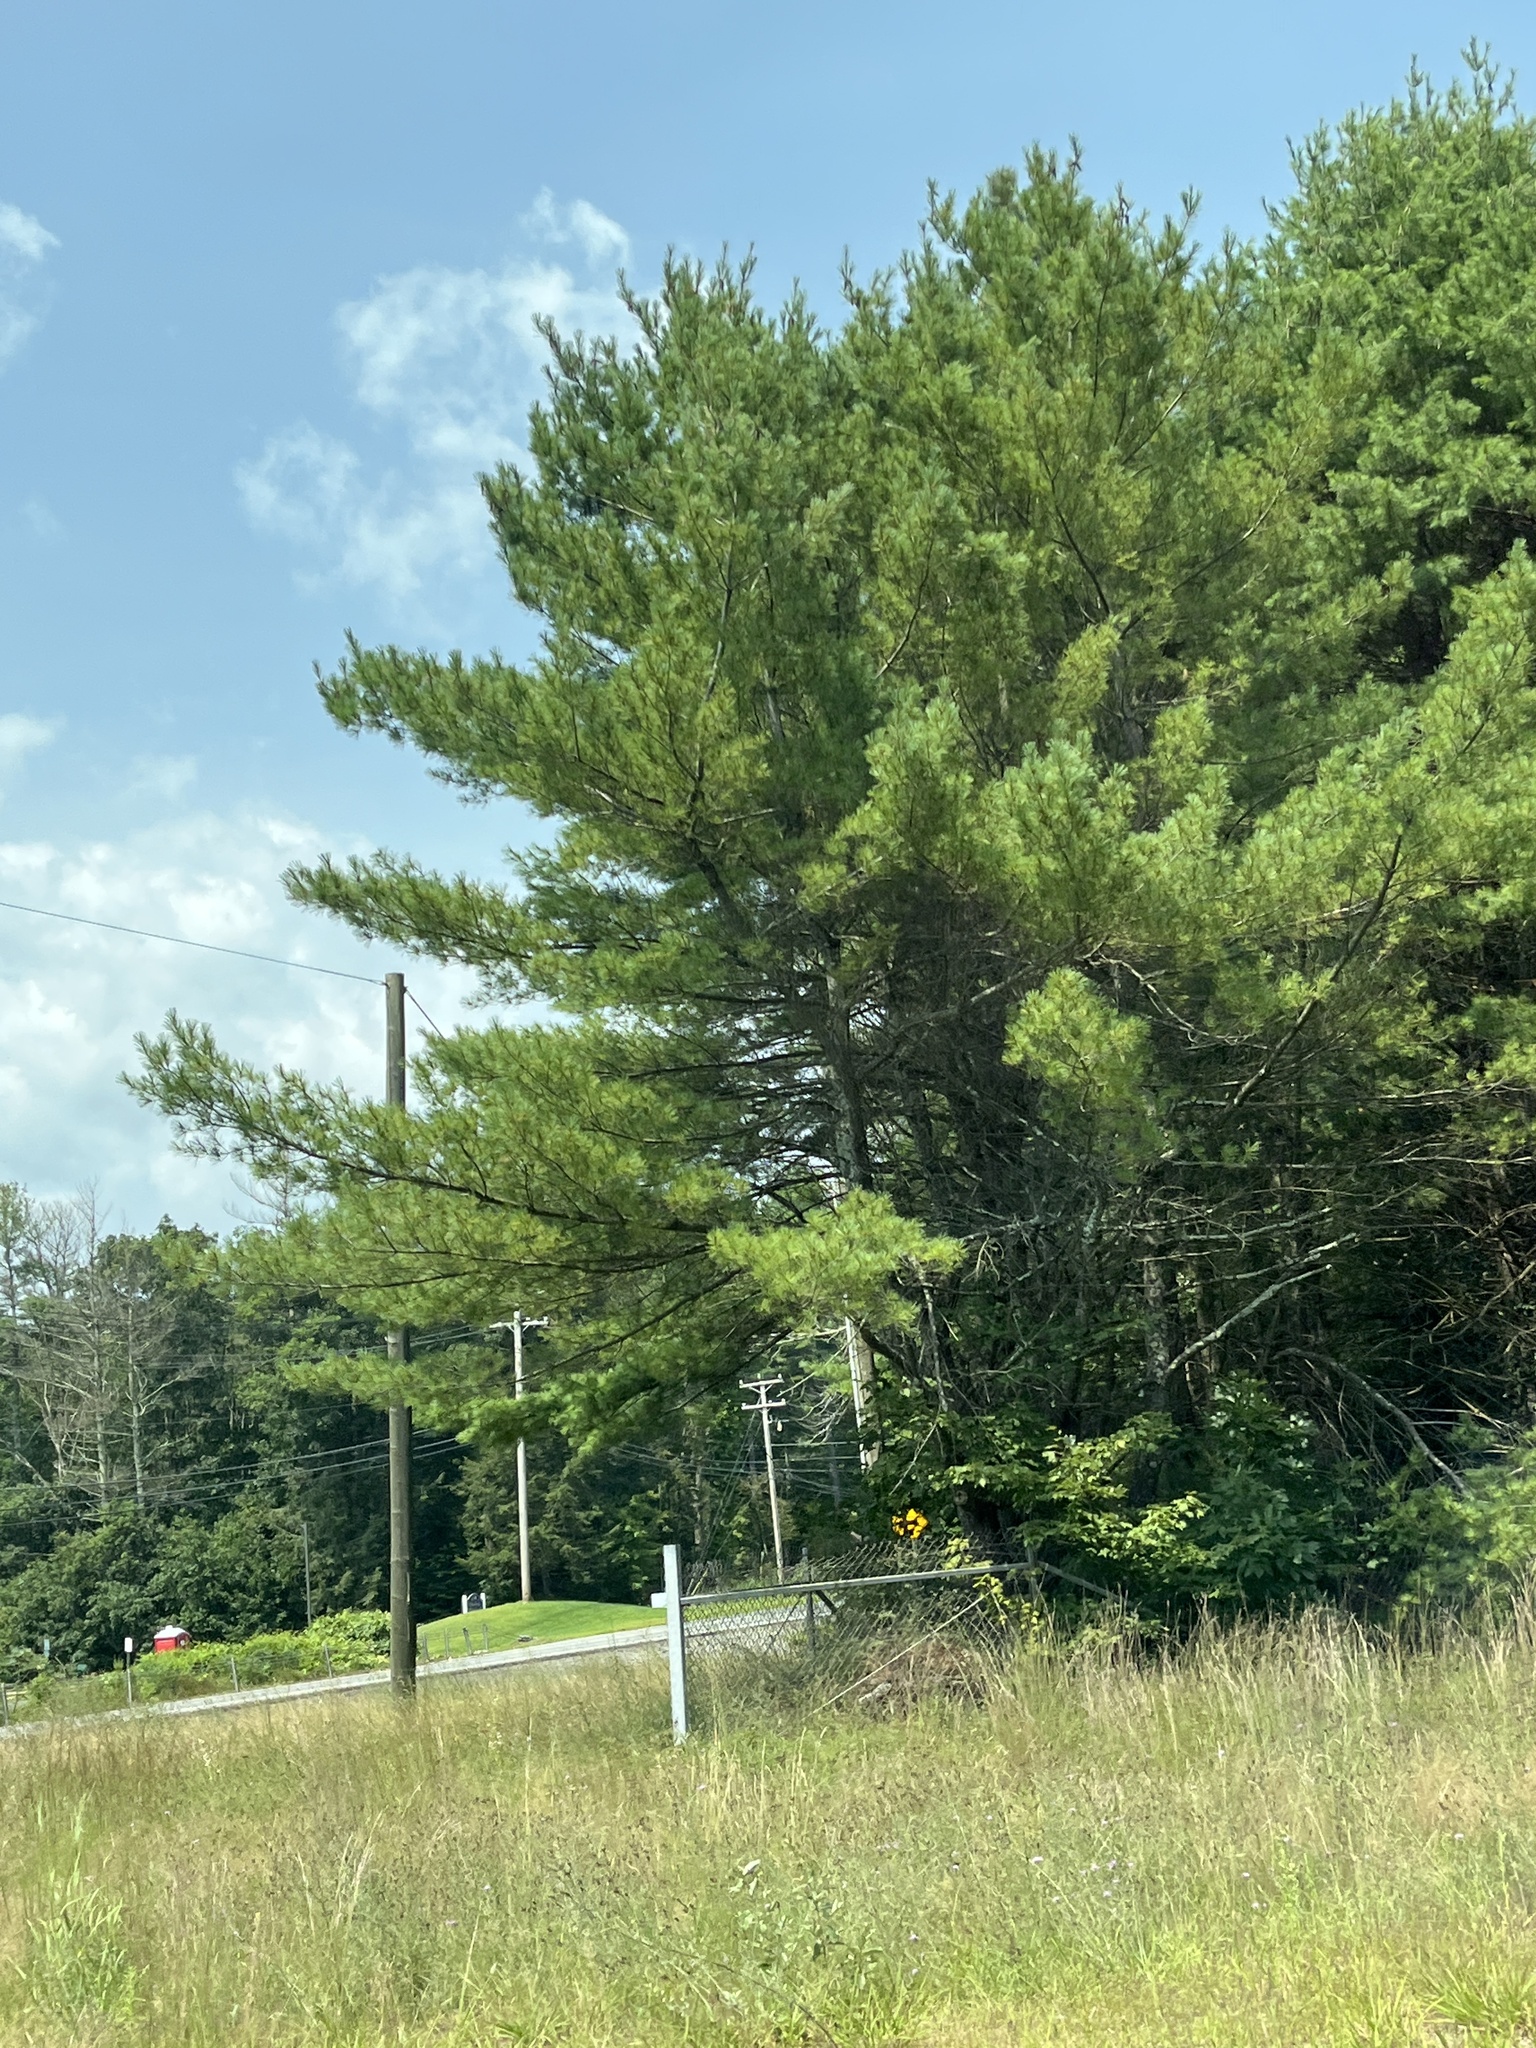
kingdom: Plantae
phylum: Tracheophyta
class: Pinopsida
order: Pinales
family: Pinaceae
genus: Pinus
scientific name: Pinus strobus
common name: Weymouth pine
